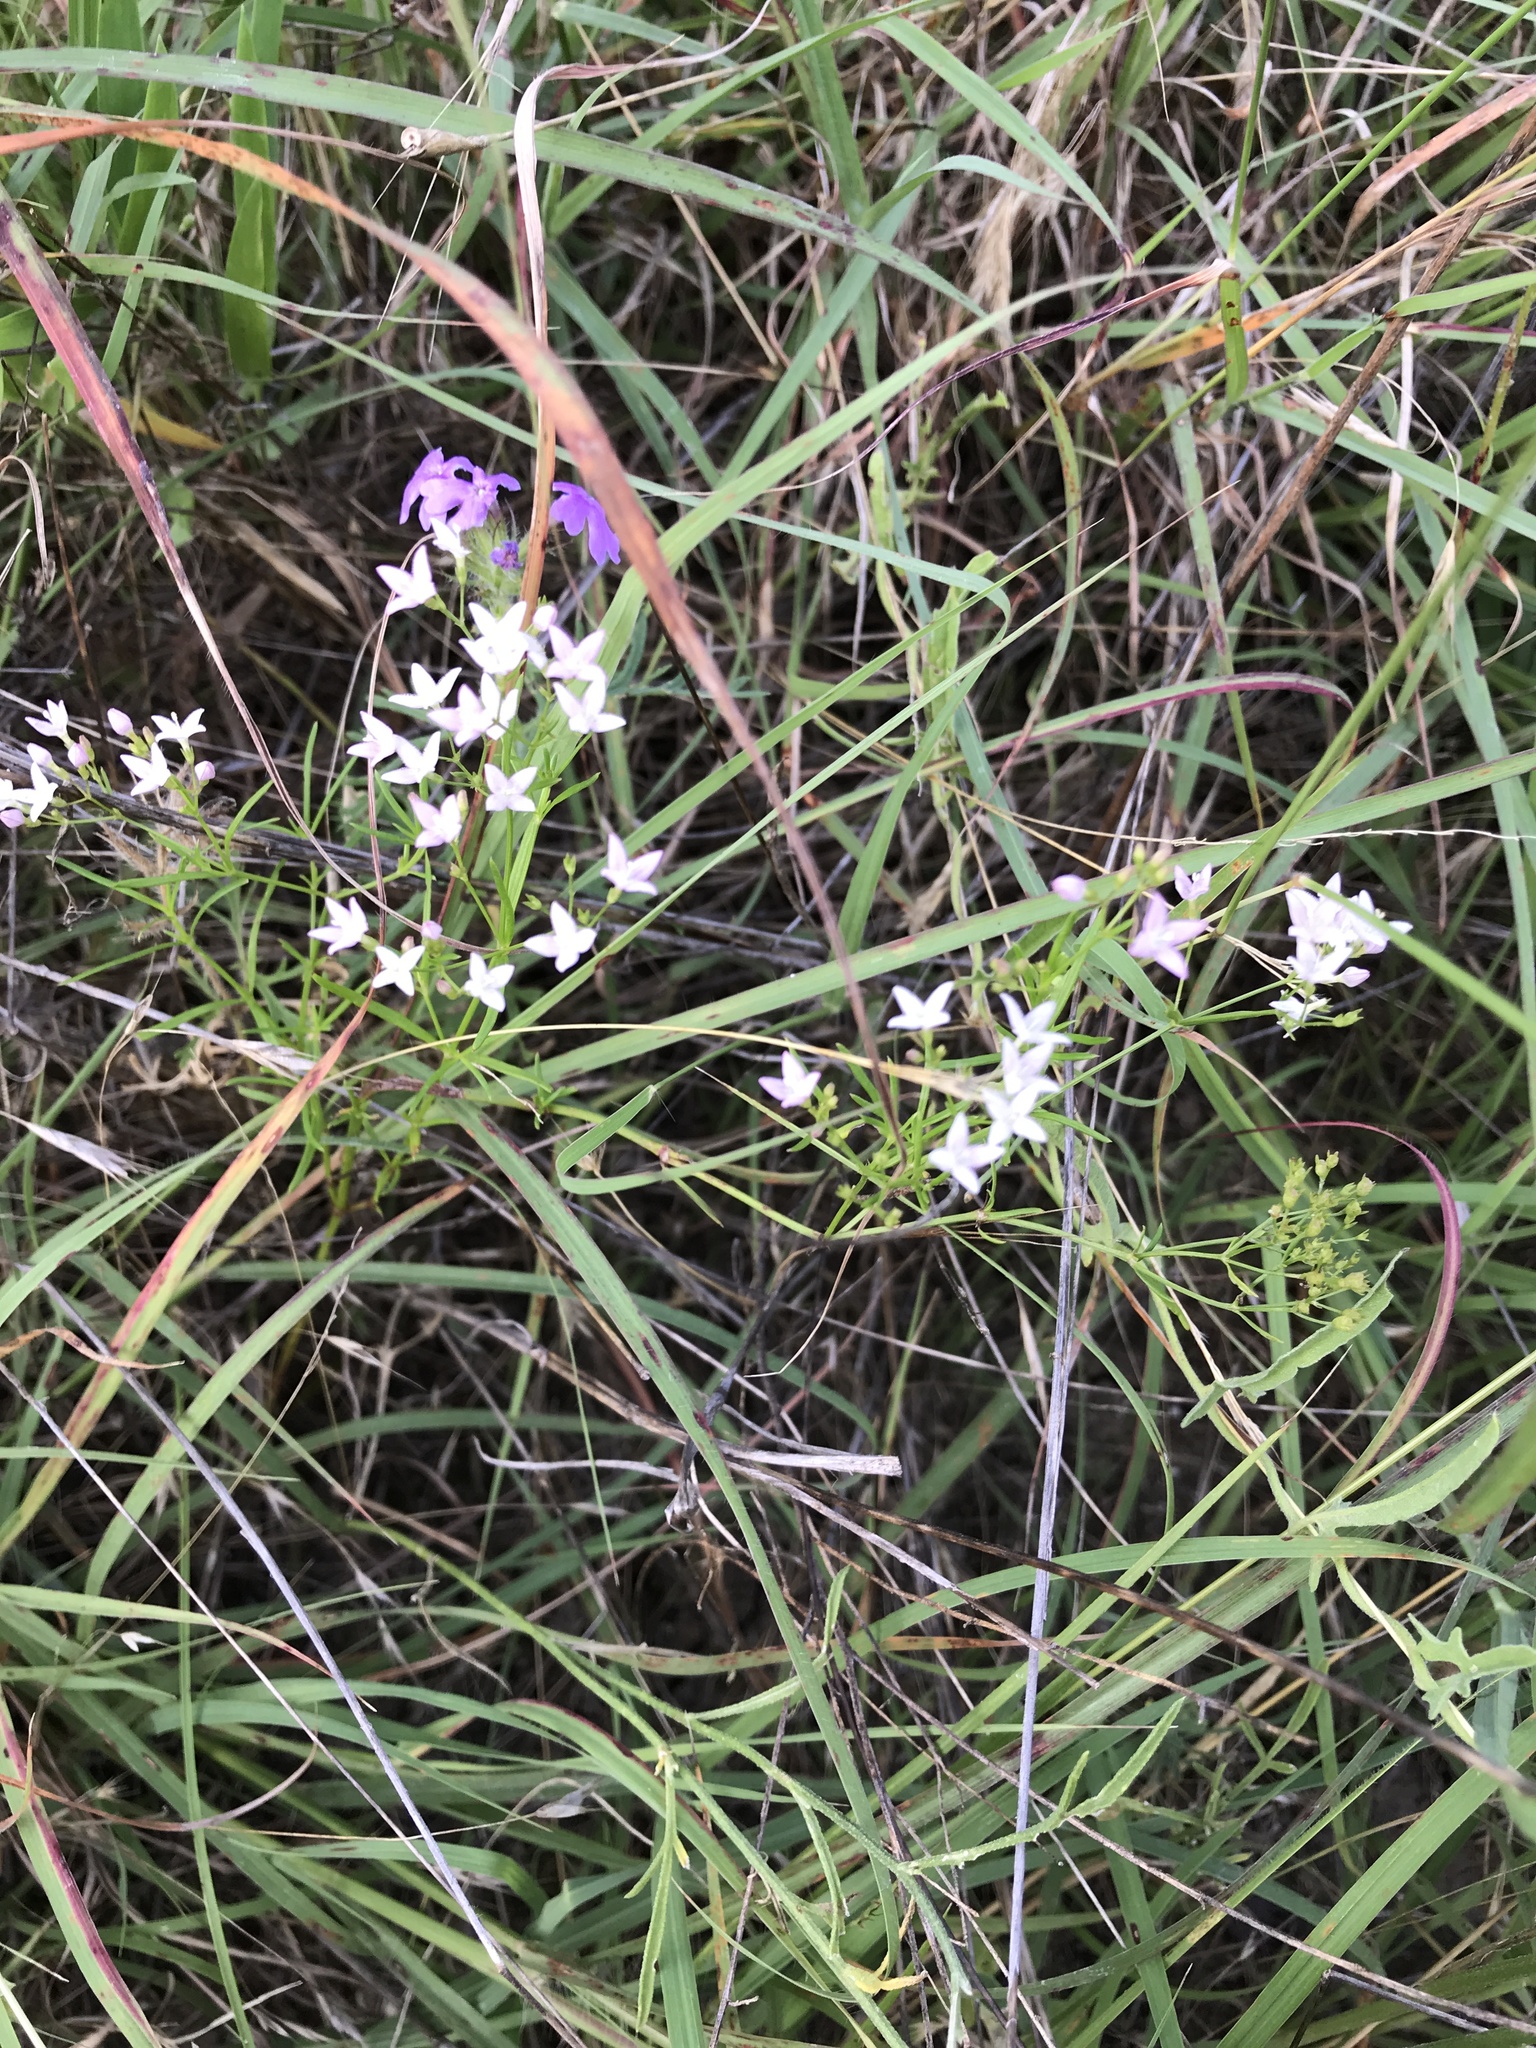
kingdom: Plantae
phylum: Tracheophyta
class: Magnoliopsida
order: Gentianales
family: Rubiaceae
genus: Stenaria
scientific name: Stenaria nigricans
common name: Diamondflowers
